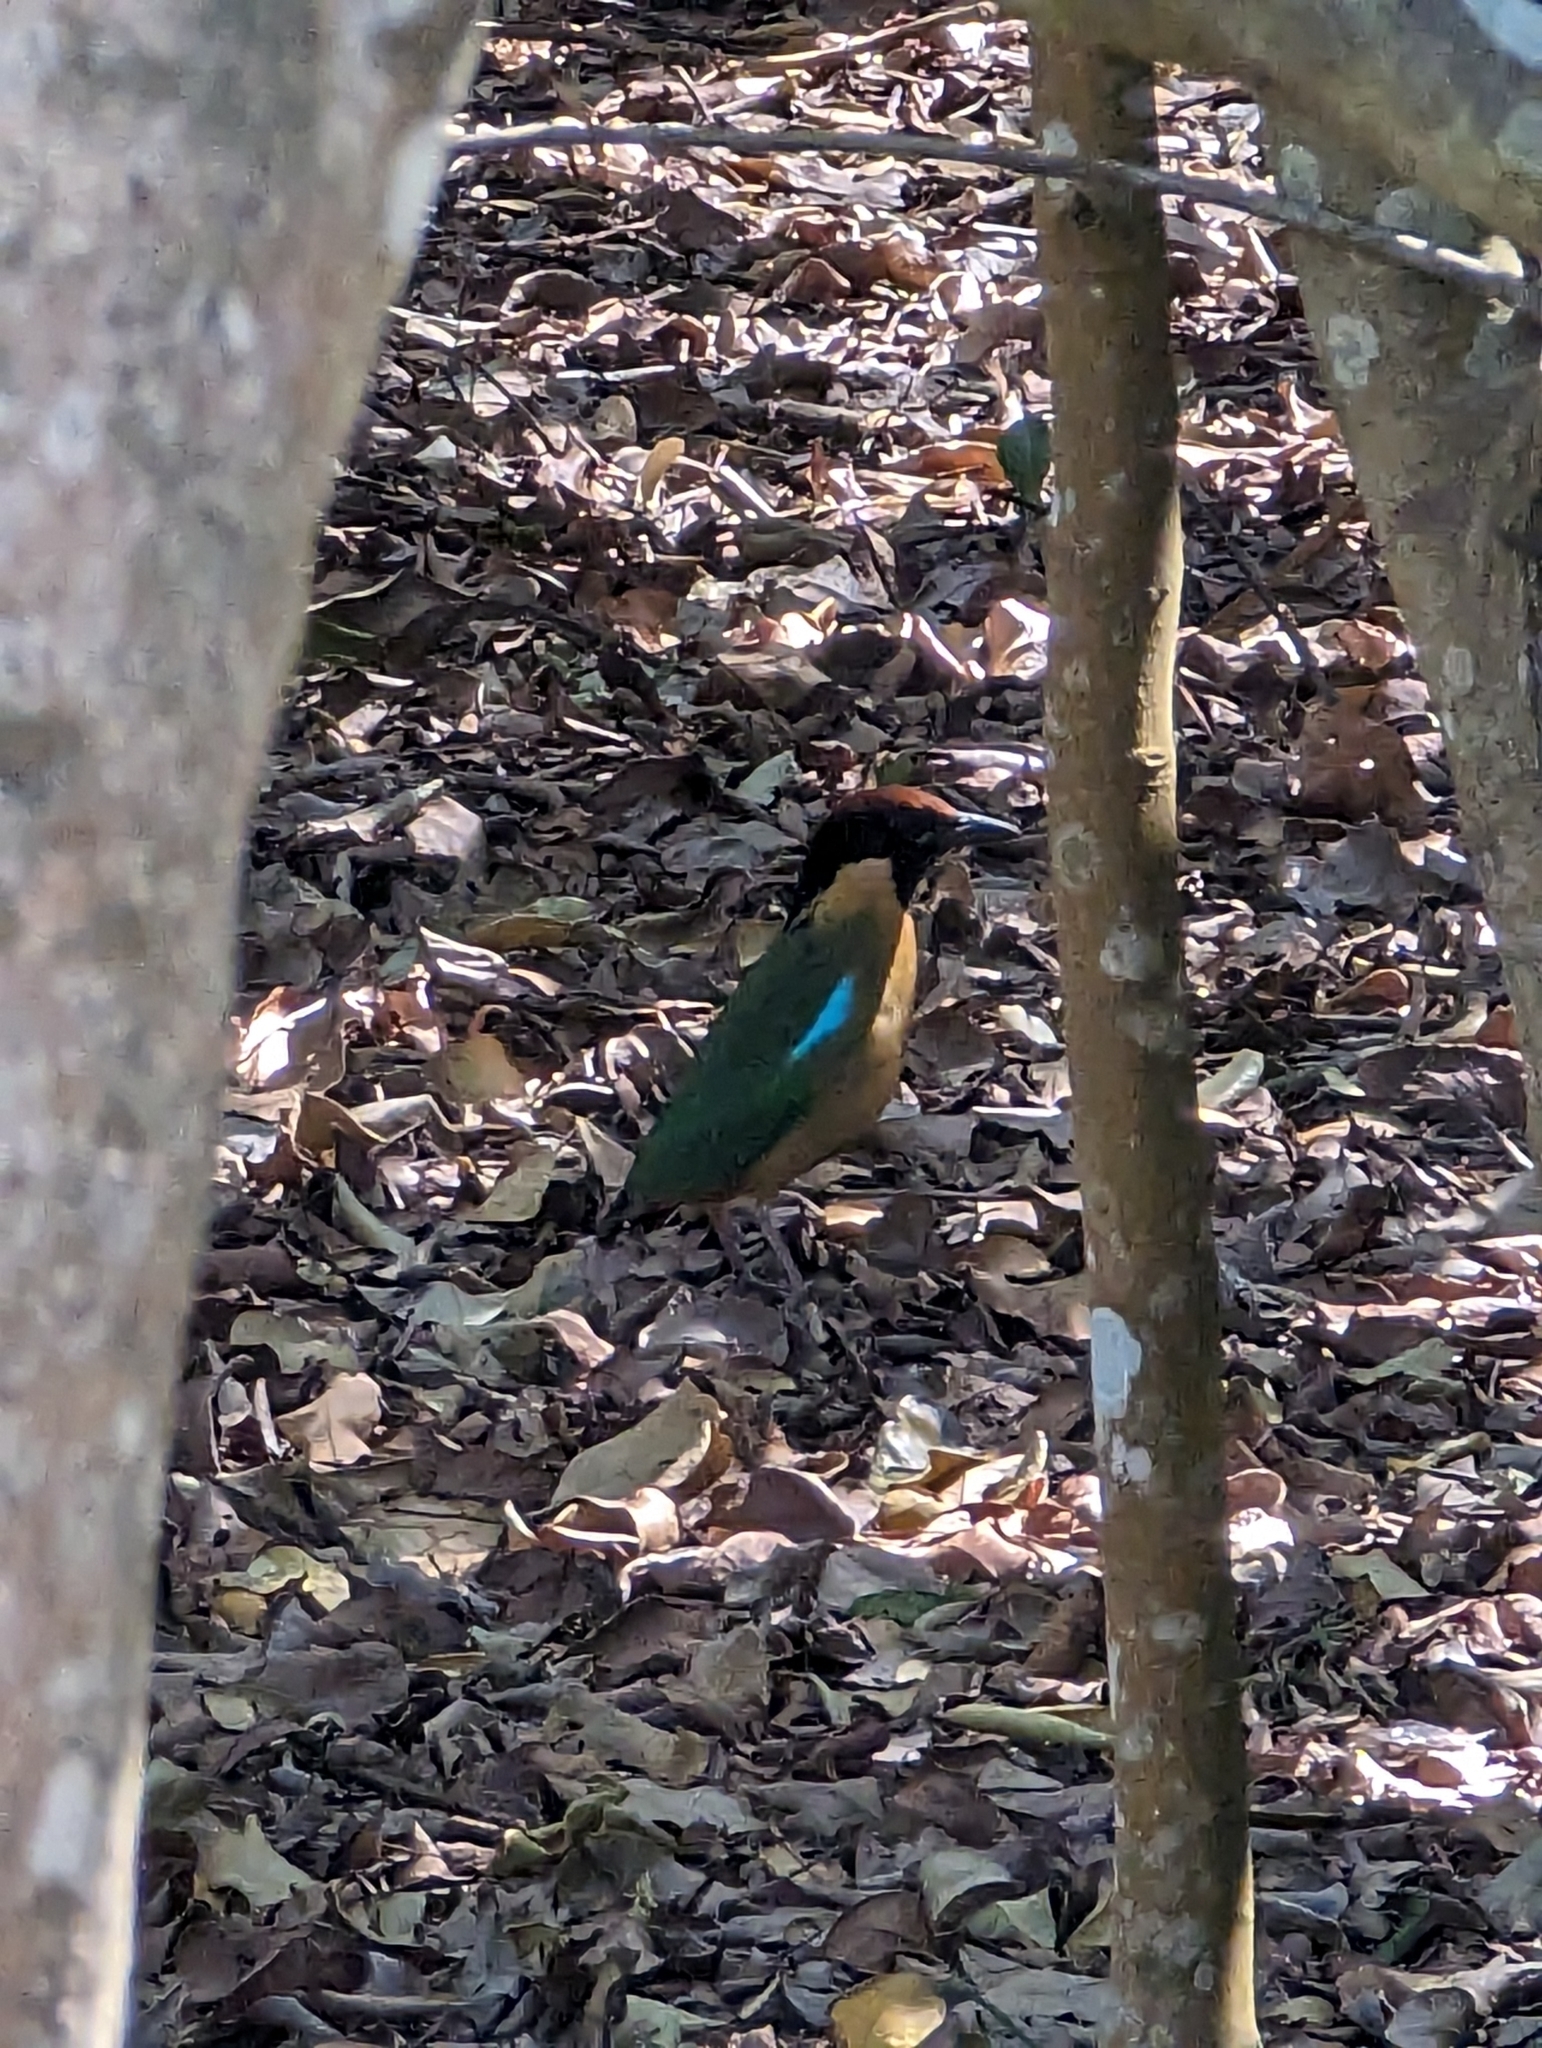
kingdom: Animalia
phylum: Chordata
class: Aves
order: Passeriformes
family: Pittidae
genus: Pitta
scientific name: Pitta versicolor
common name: Noisy pitta
